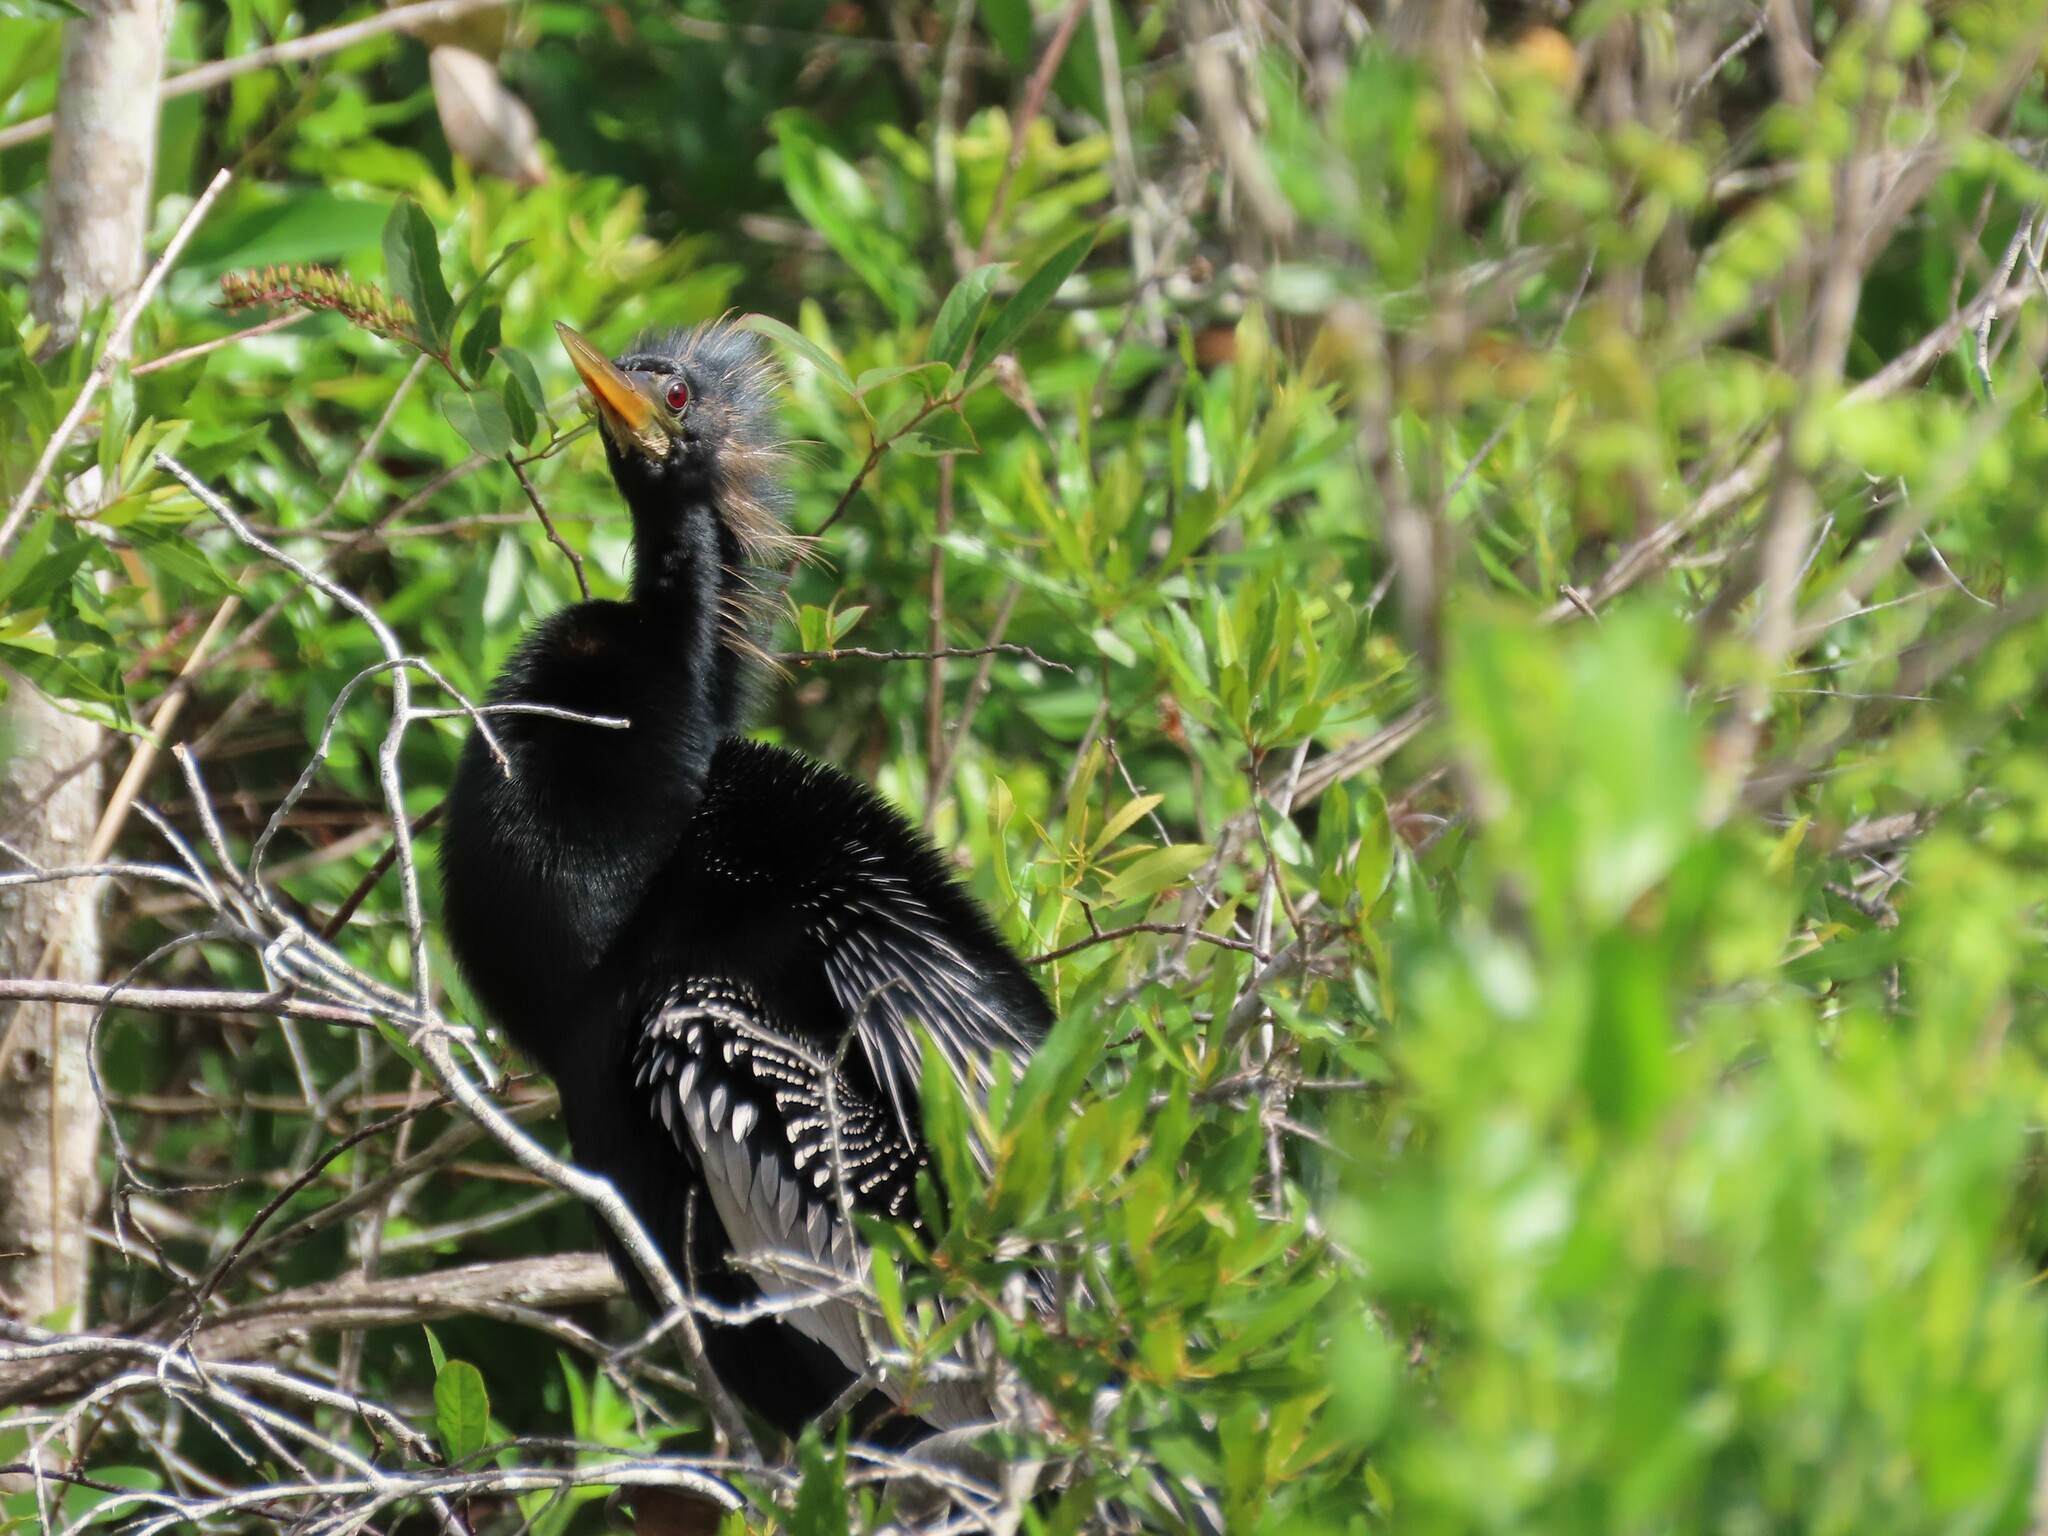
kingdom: Animalia
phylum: Chordata
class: Aves
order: Suliformes
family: Anhingidae
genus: Anhinga
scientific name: Anhinga anhinga
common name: Anhinga
